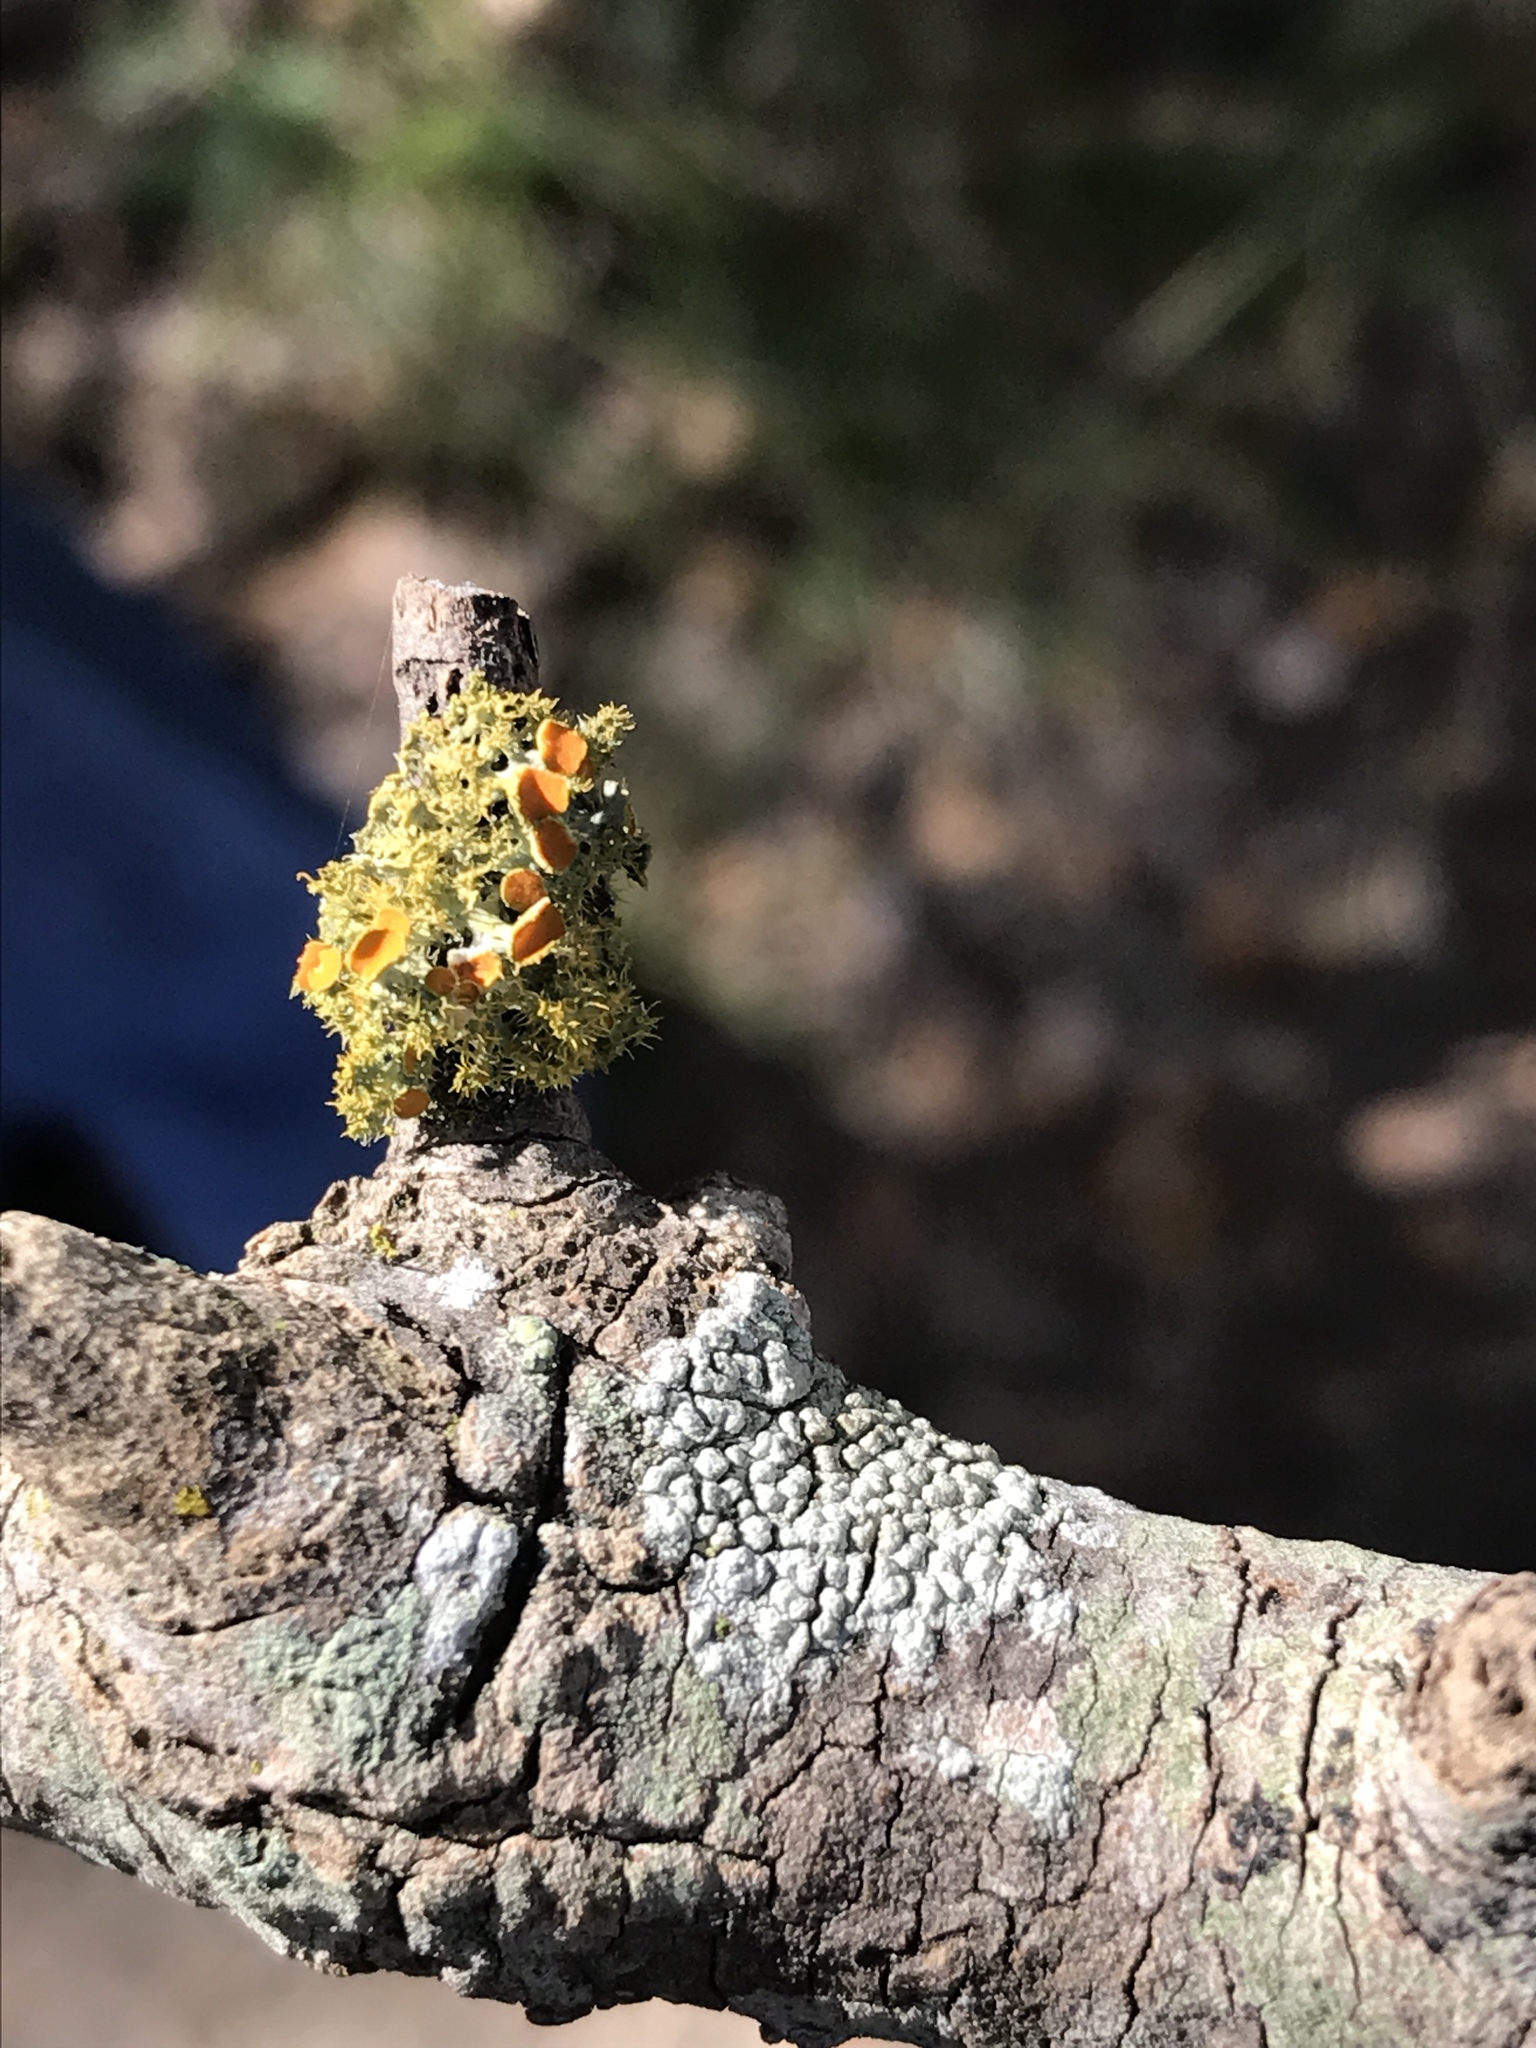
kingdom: Fungi
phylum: Ascomycota
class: Lecanoromycetes
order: Teloschistales
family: Teloschistaceae
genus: Niorma
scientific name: Niorma chrysophthalma
